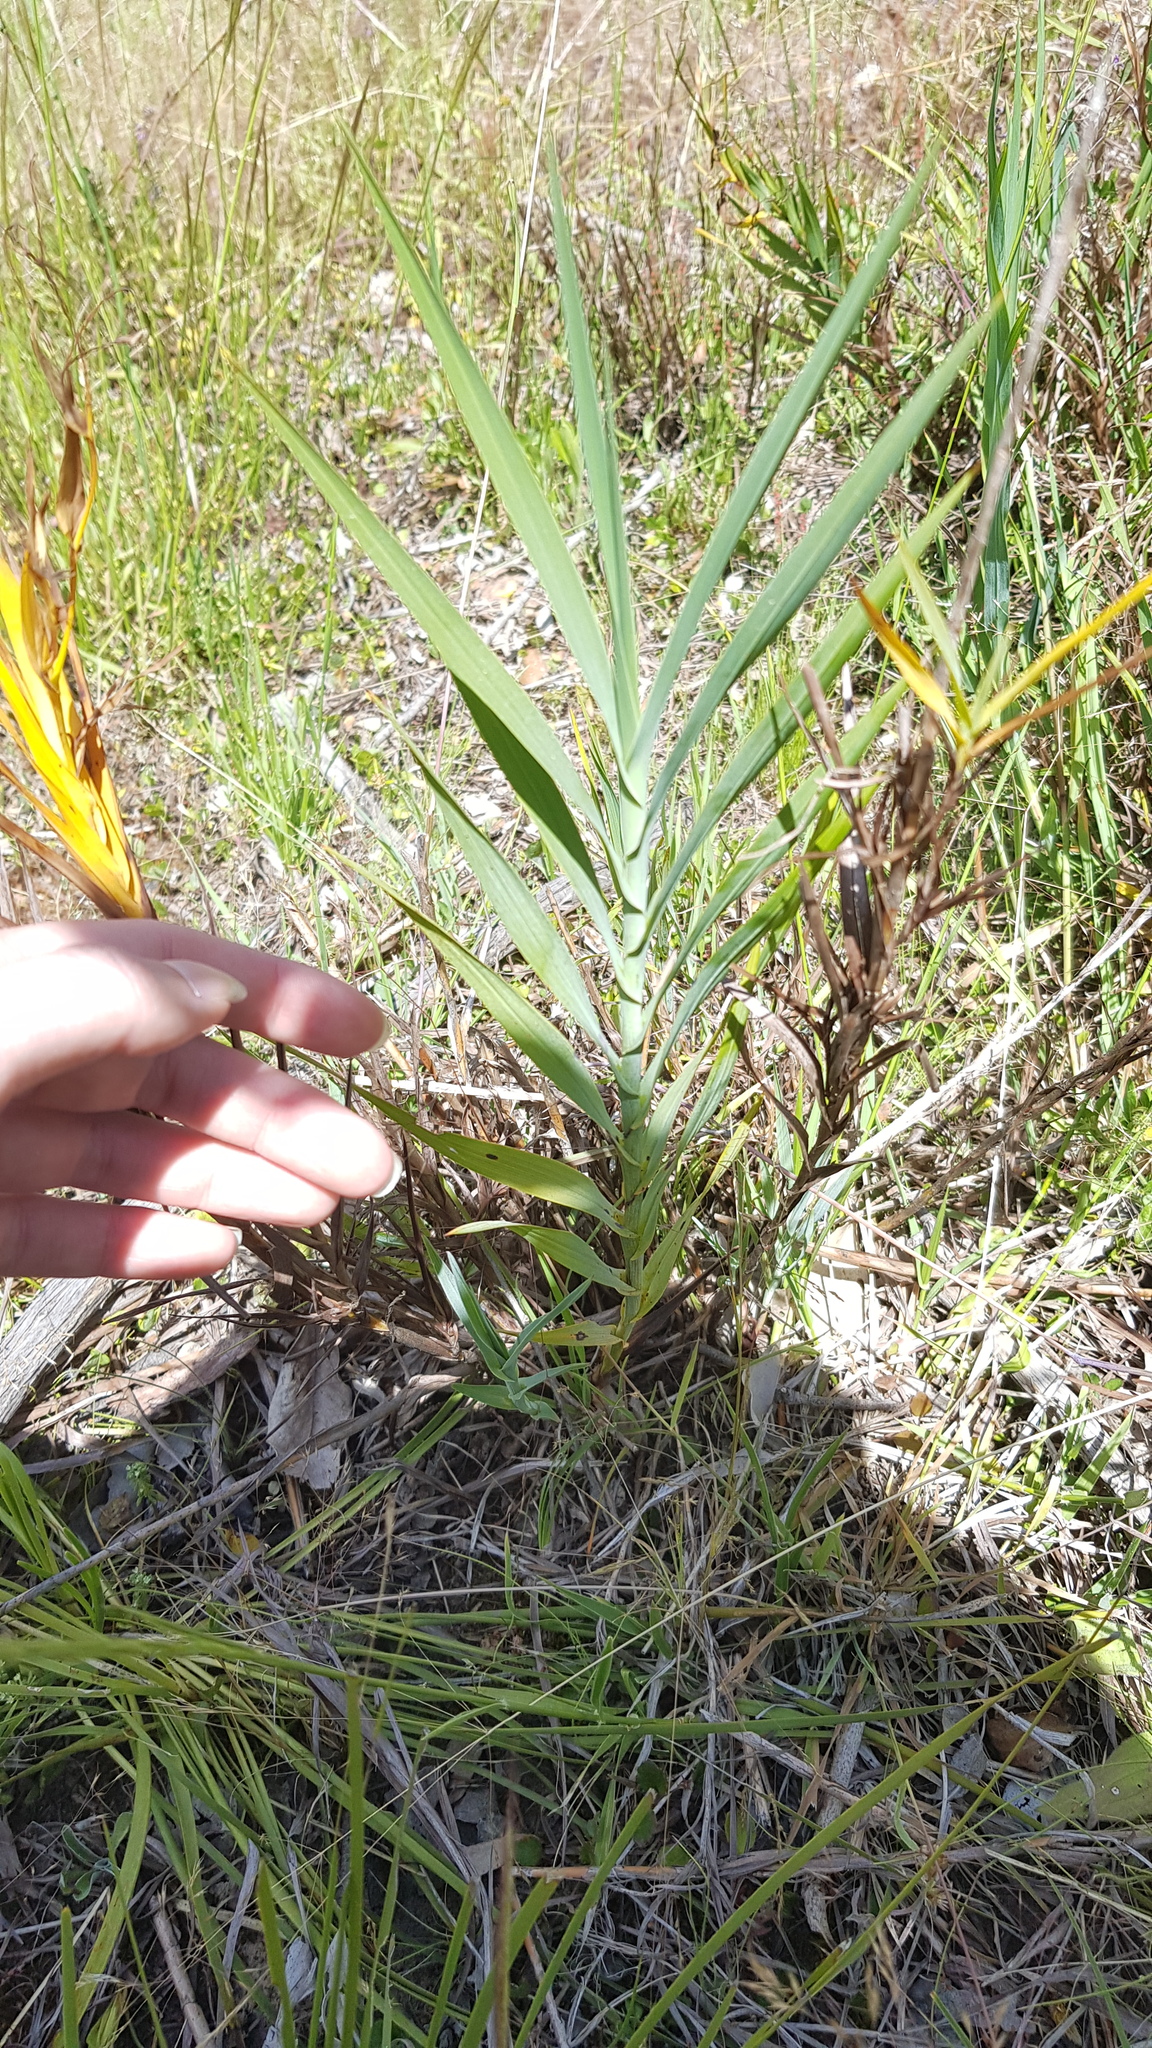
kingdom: Plantae
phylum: Tracheophyta
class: Liliopsida
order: Asparagales
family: Asphodelaceae
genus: Stypandra
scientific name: Stypandra glauca
